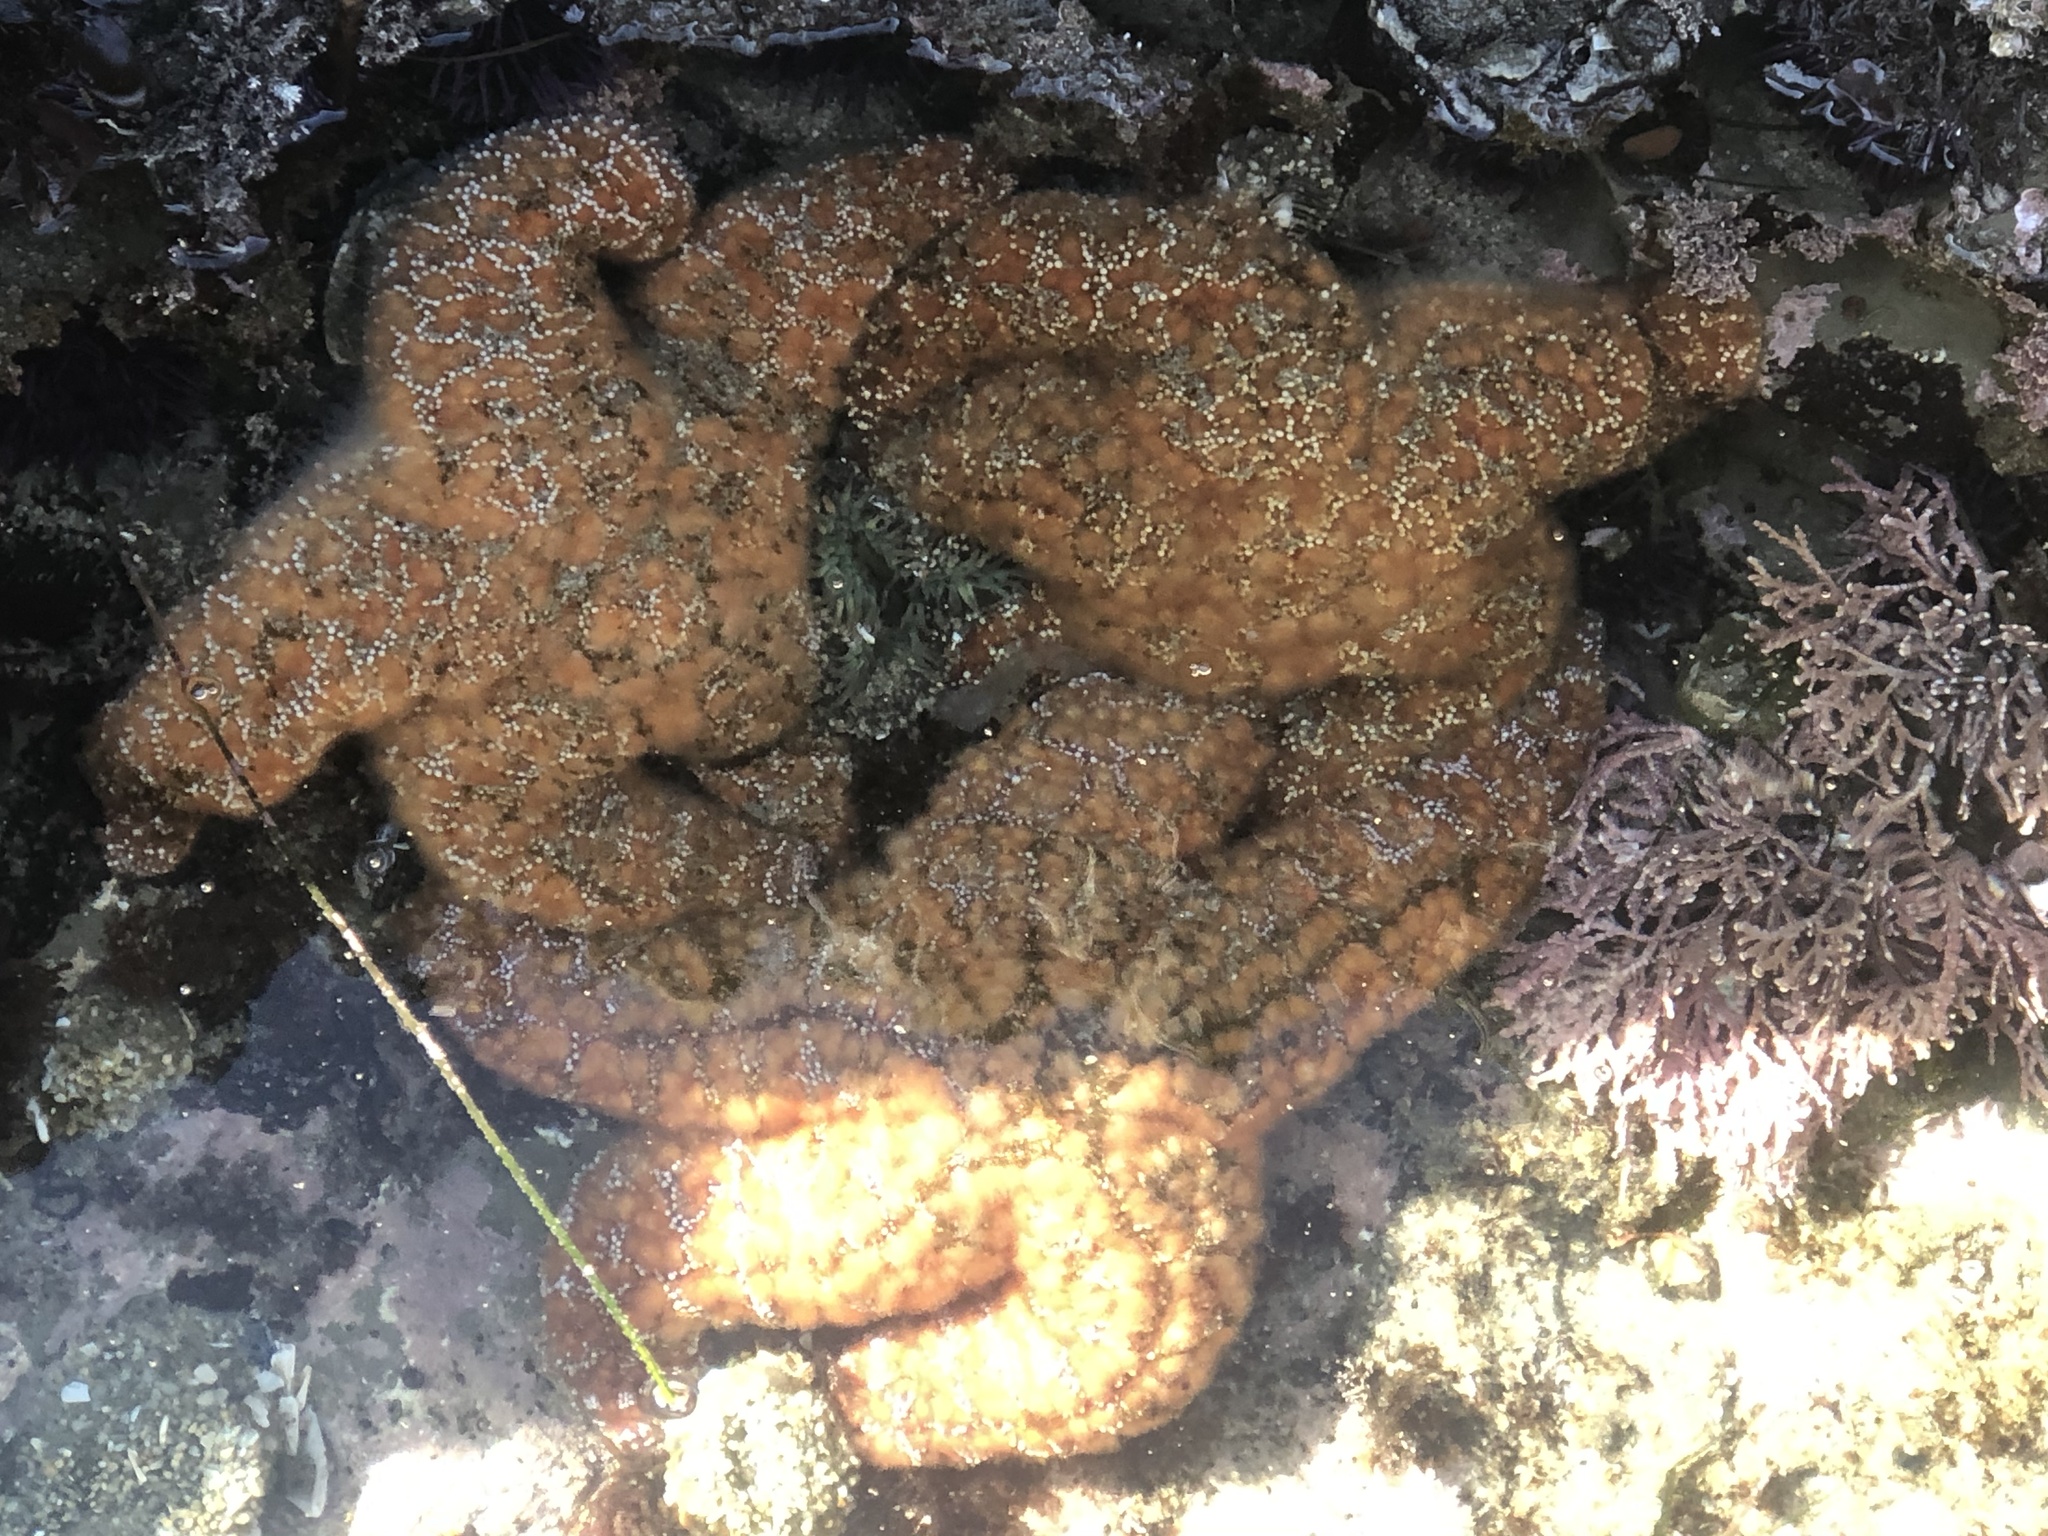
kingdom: Animalia
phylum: Echinodermata
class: Asteroidea
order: Forcipulatida
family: Asteriidae
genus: Pisaster
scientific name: Pisaster ochraceus
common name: Ochre stars
